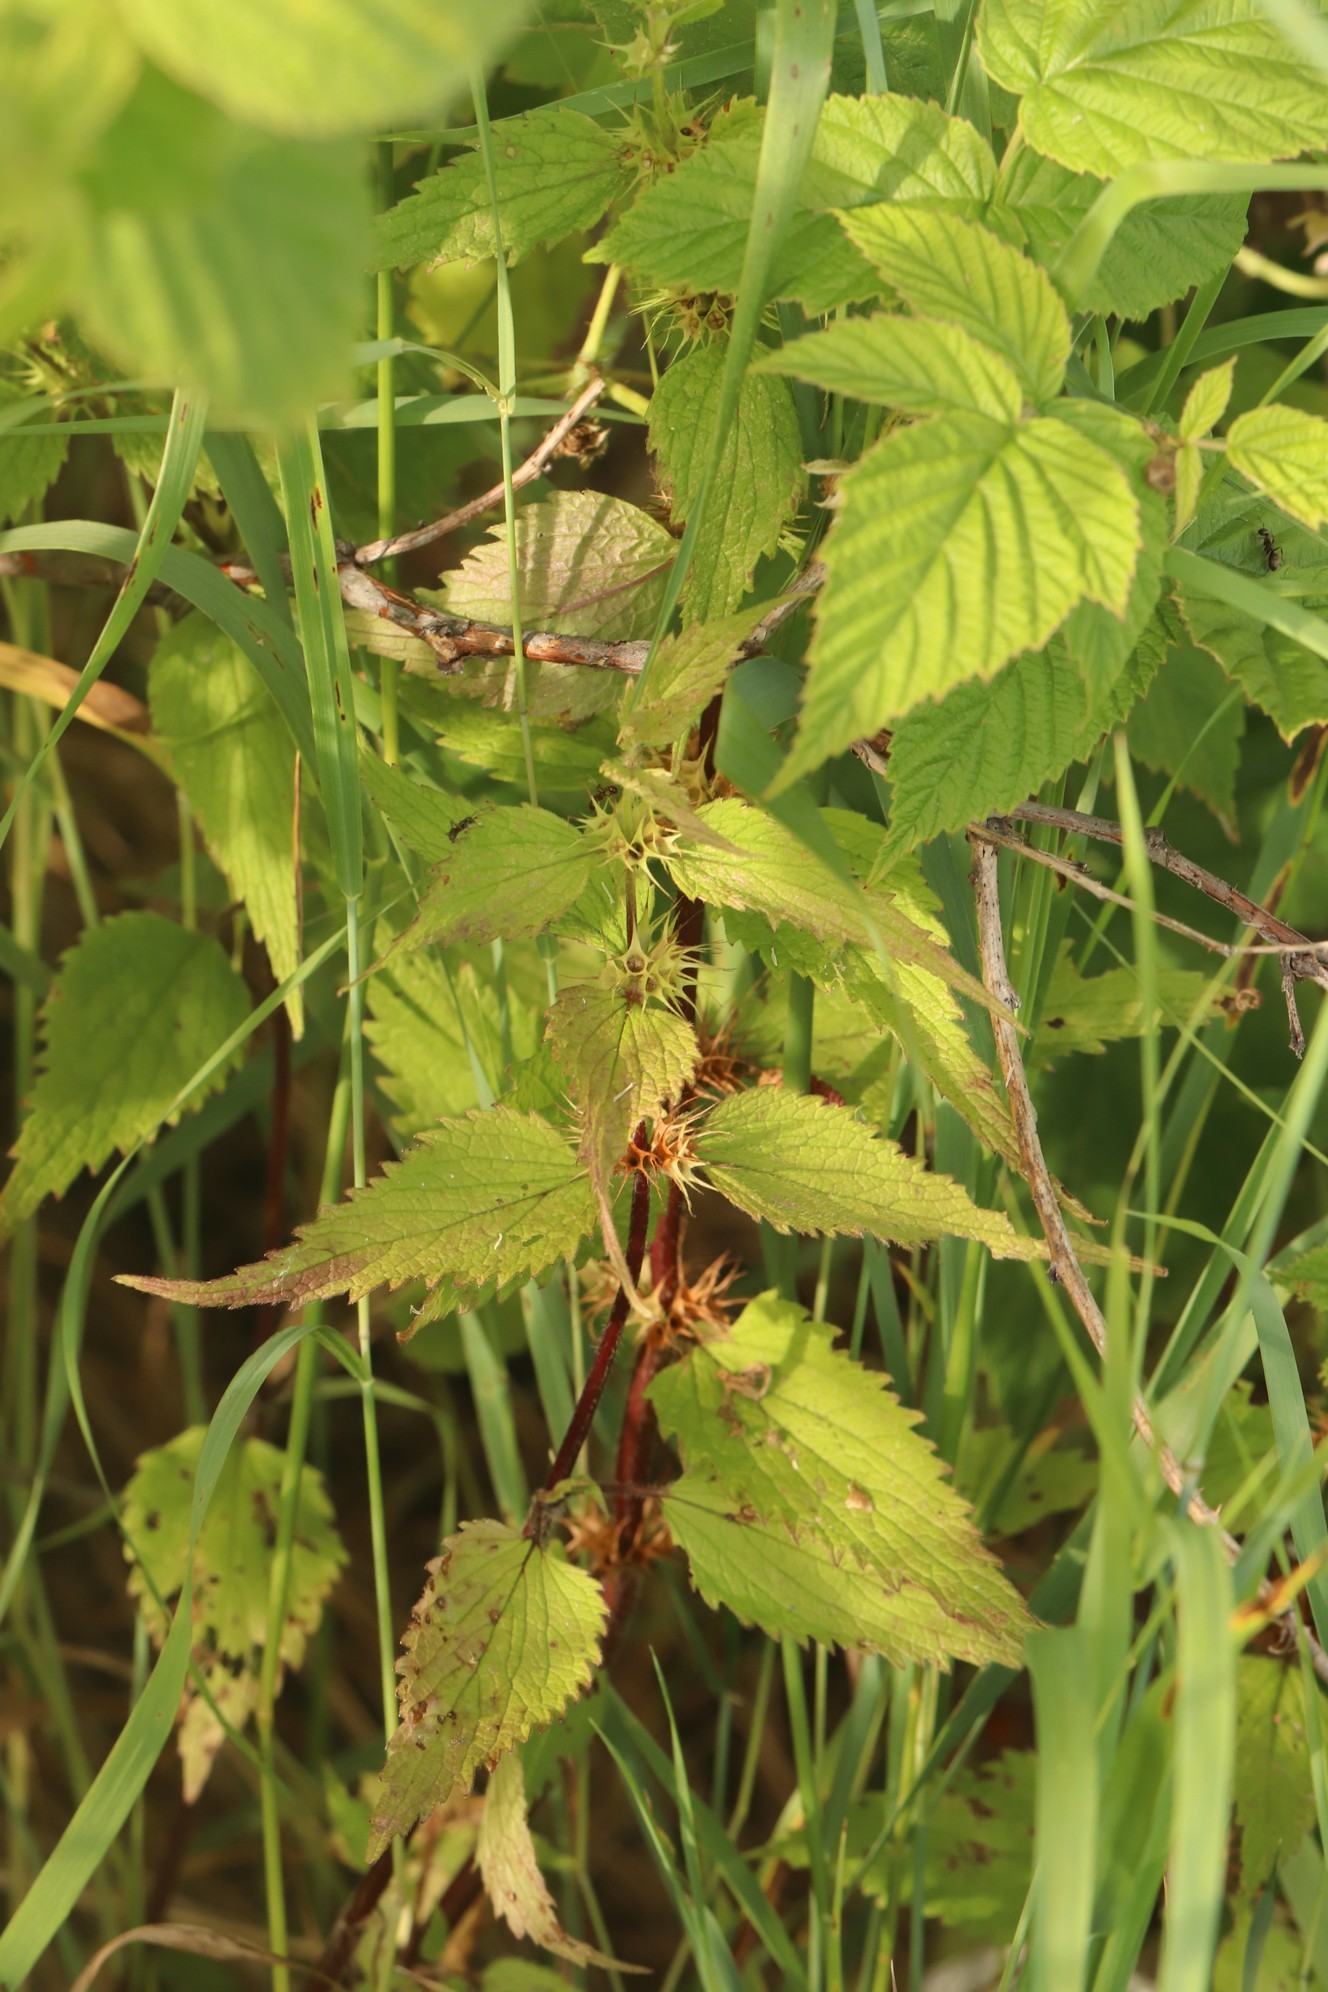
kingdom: Plantae
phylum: Tracheophyta
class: Magnoliopsida
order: Lamiales
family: Lamiaceae
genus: Lamium
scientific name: Lamium album
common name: White dead-nettle
